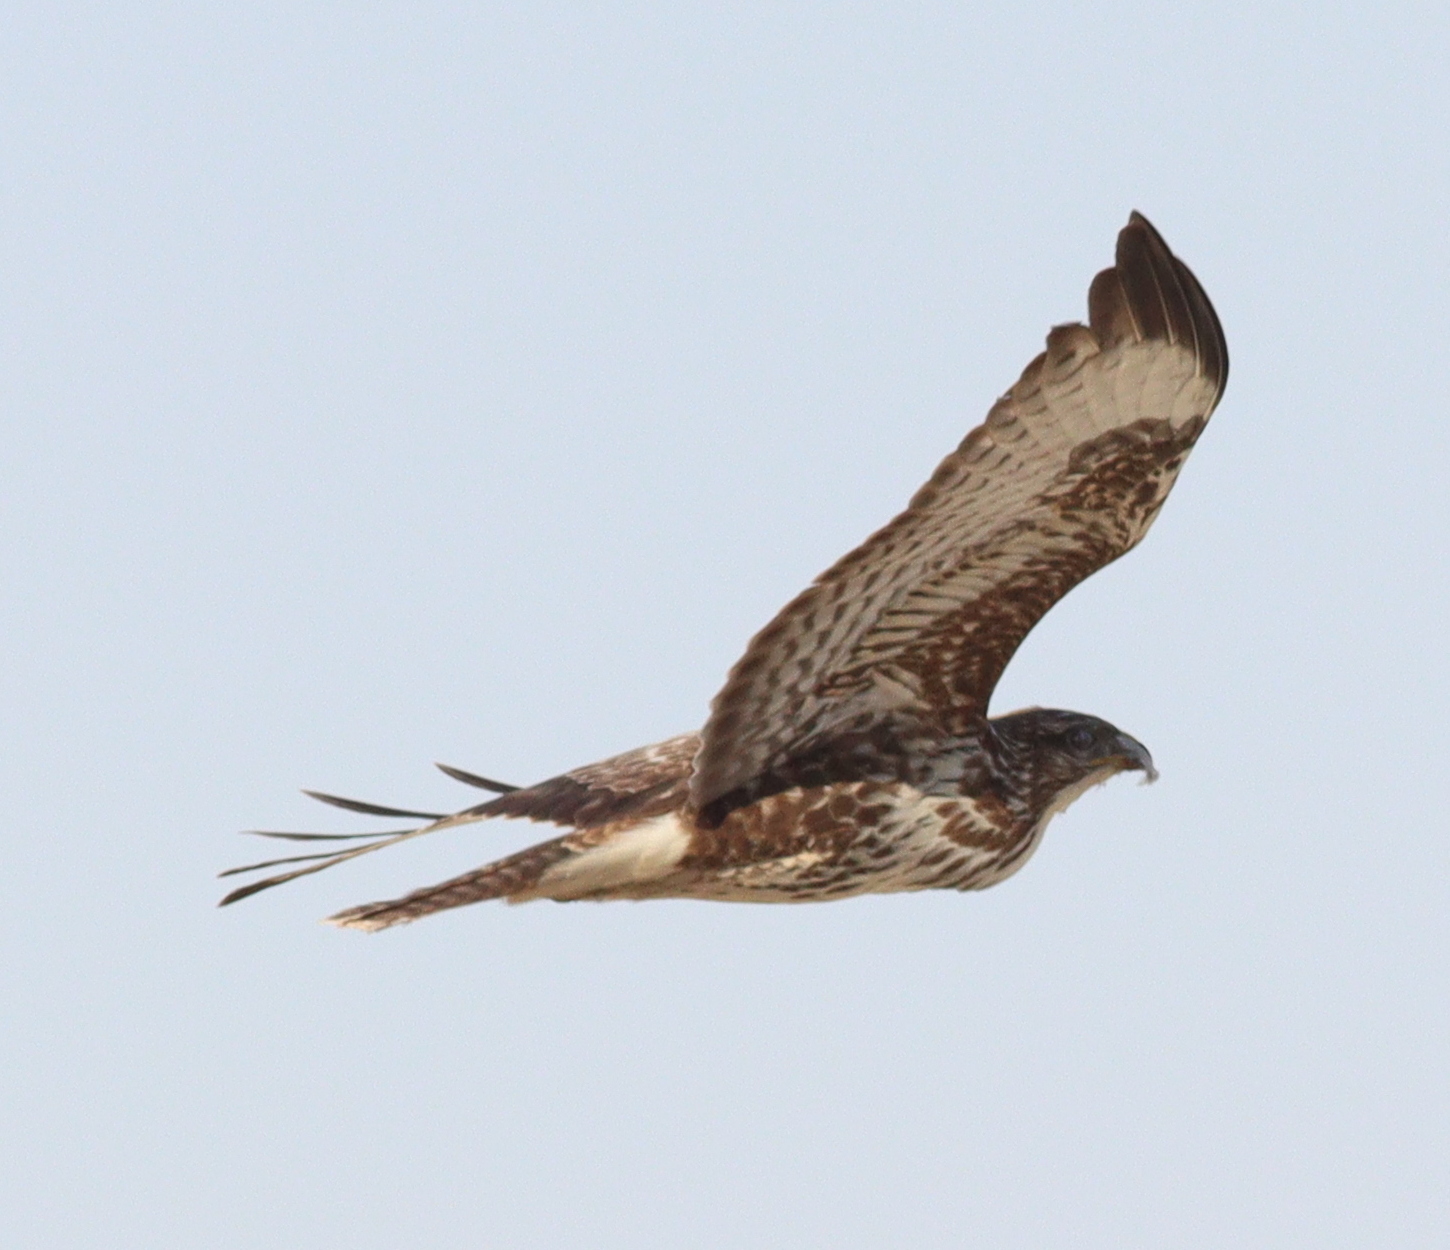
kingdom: Animalia
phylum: Chordata
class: Aves
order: Accipitriformes
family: Accipitridae
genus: Buteo
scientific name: Buteo buteo
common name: Common buzzard
